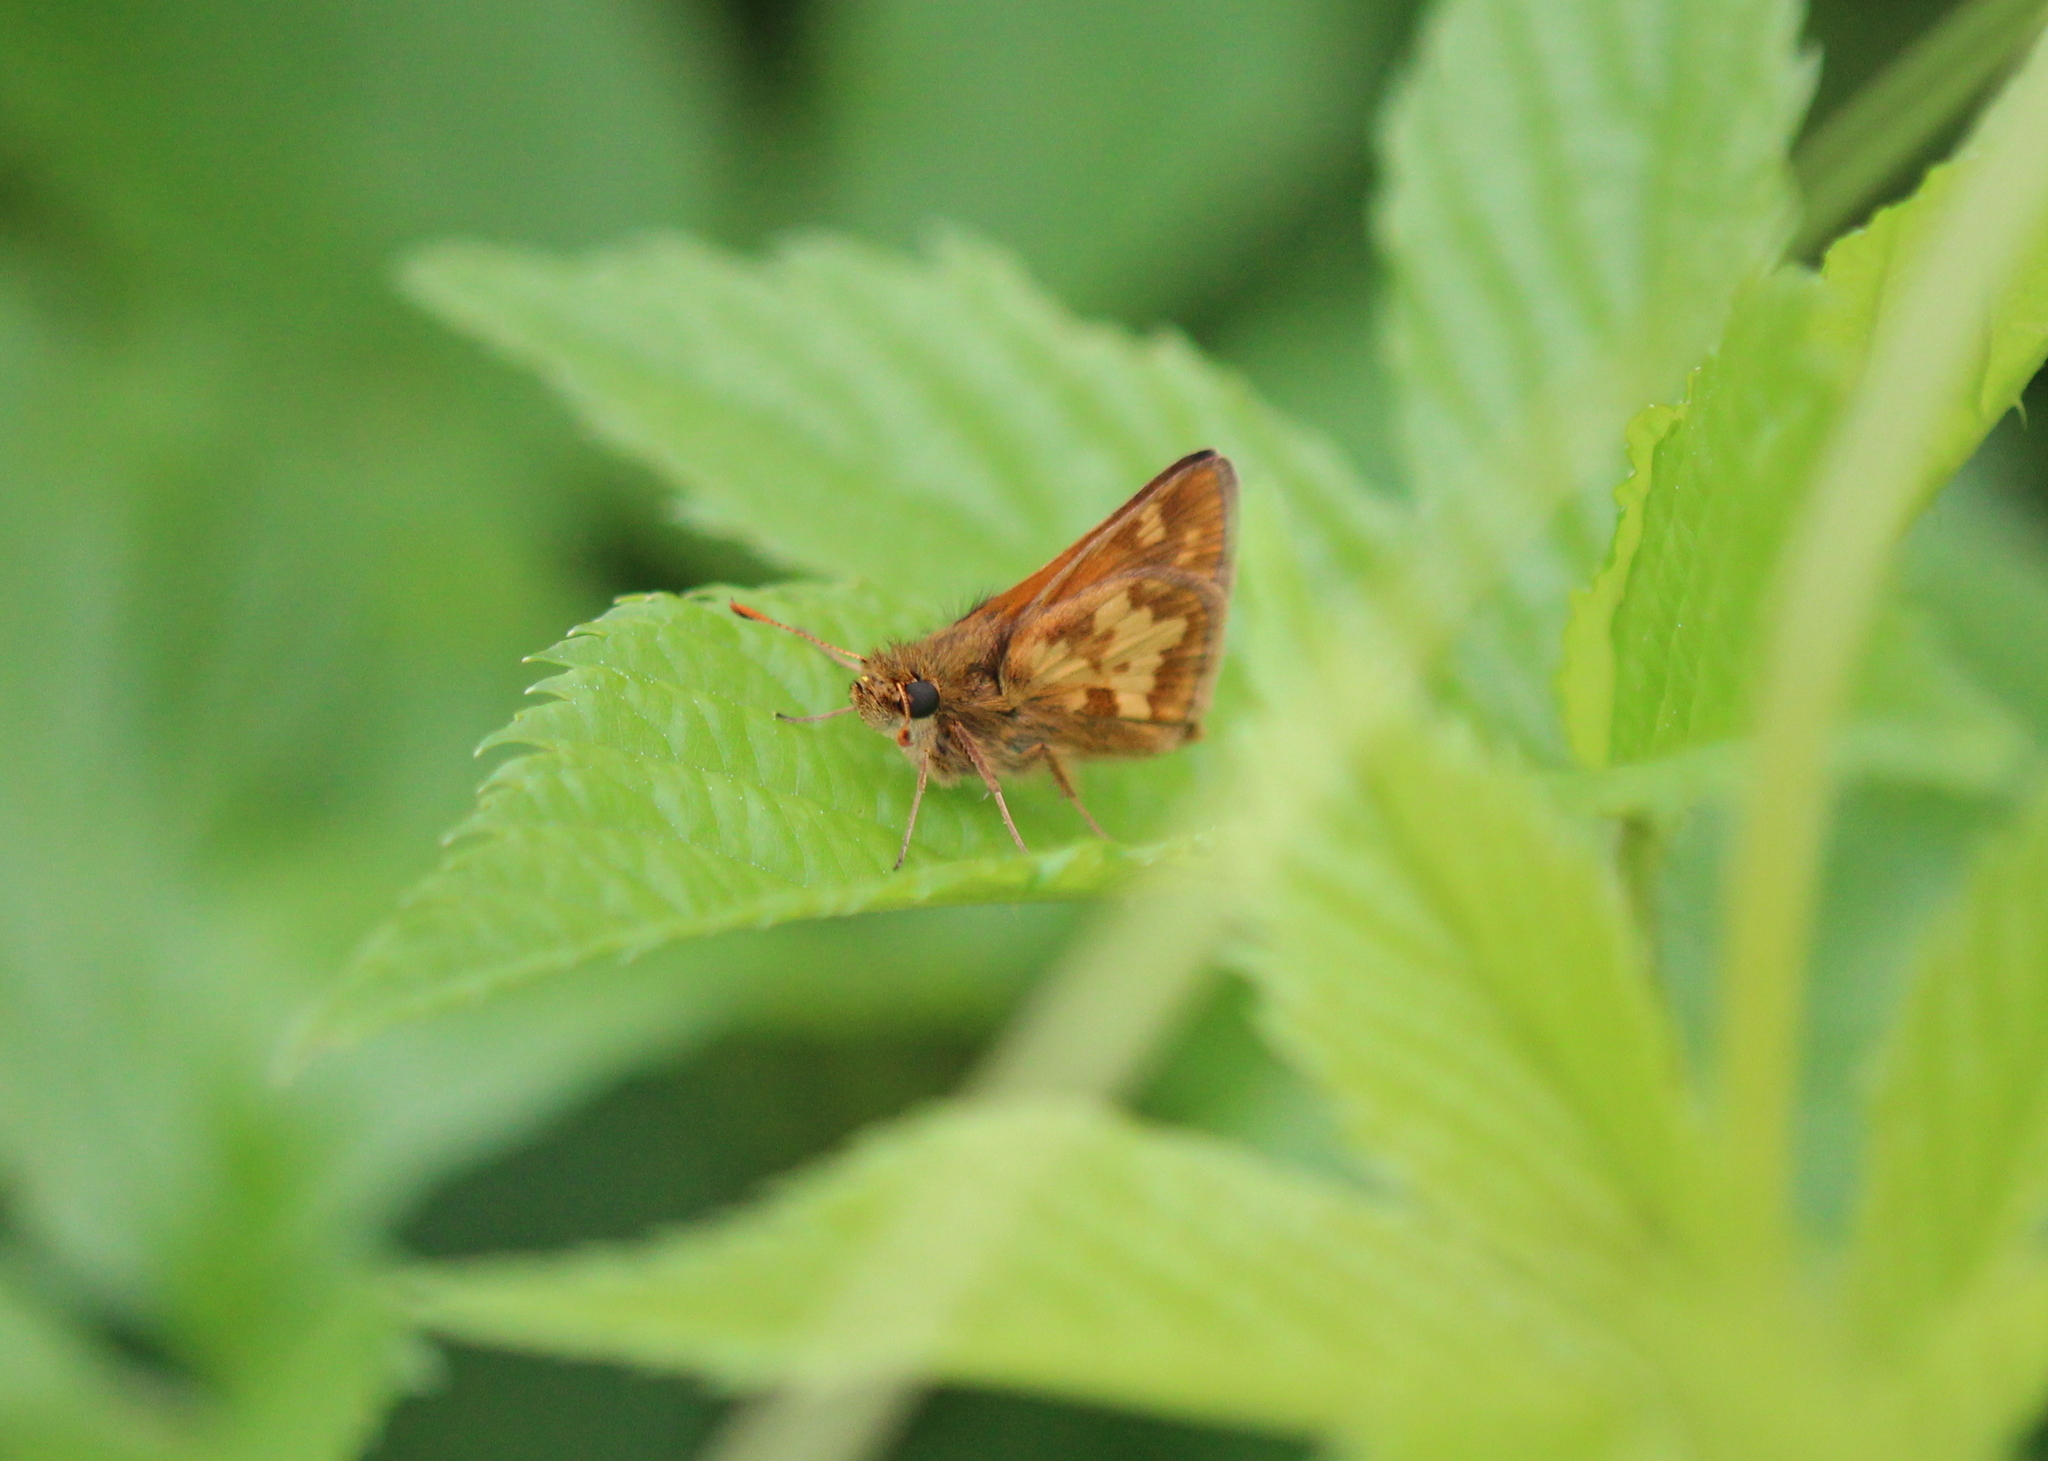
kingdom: Animalia
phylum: Arthropoda
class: Insecta
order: Lepidoptera
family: Hesperiidae
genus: Polites
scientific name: Polites coras
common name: Peck's skipper
